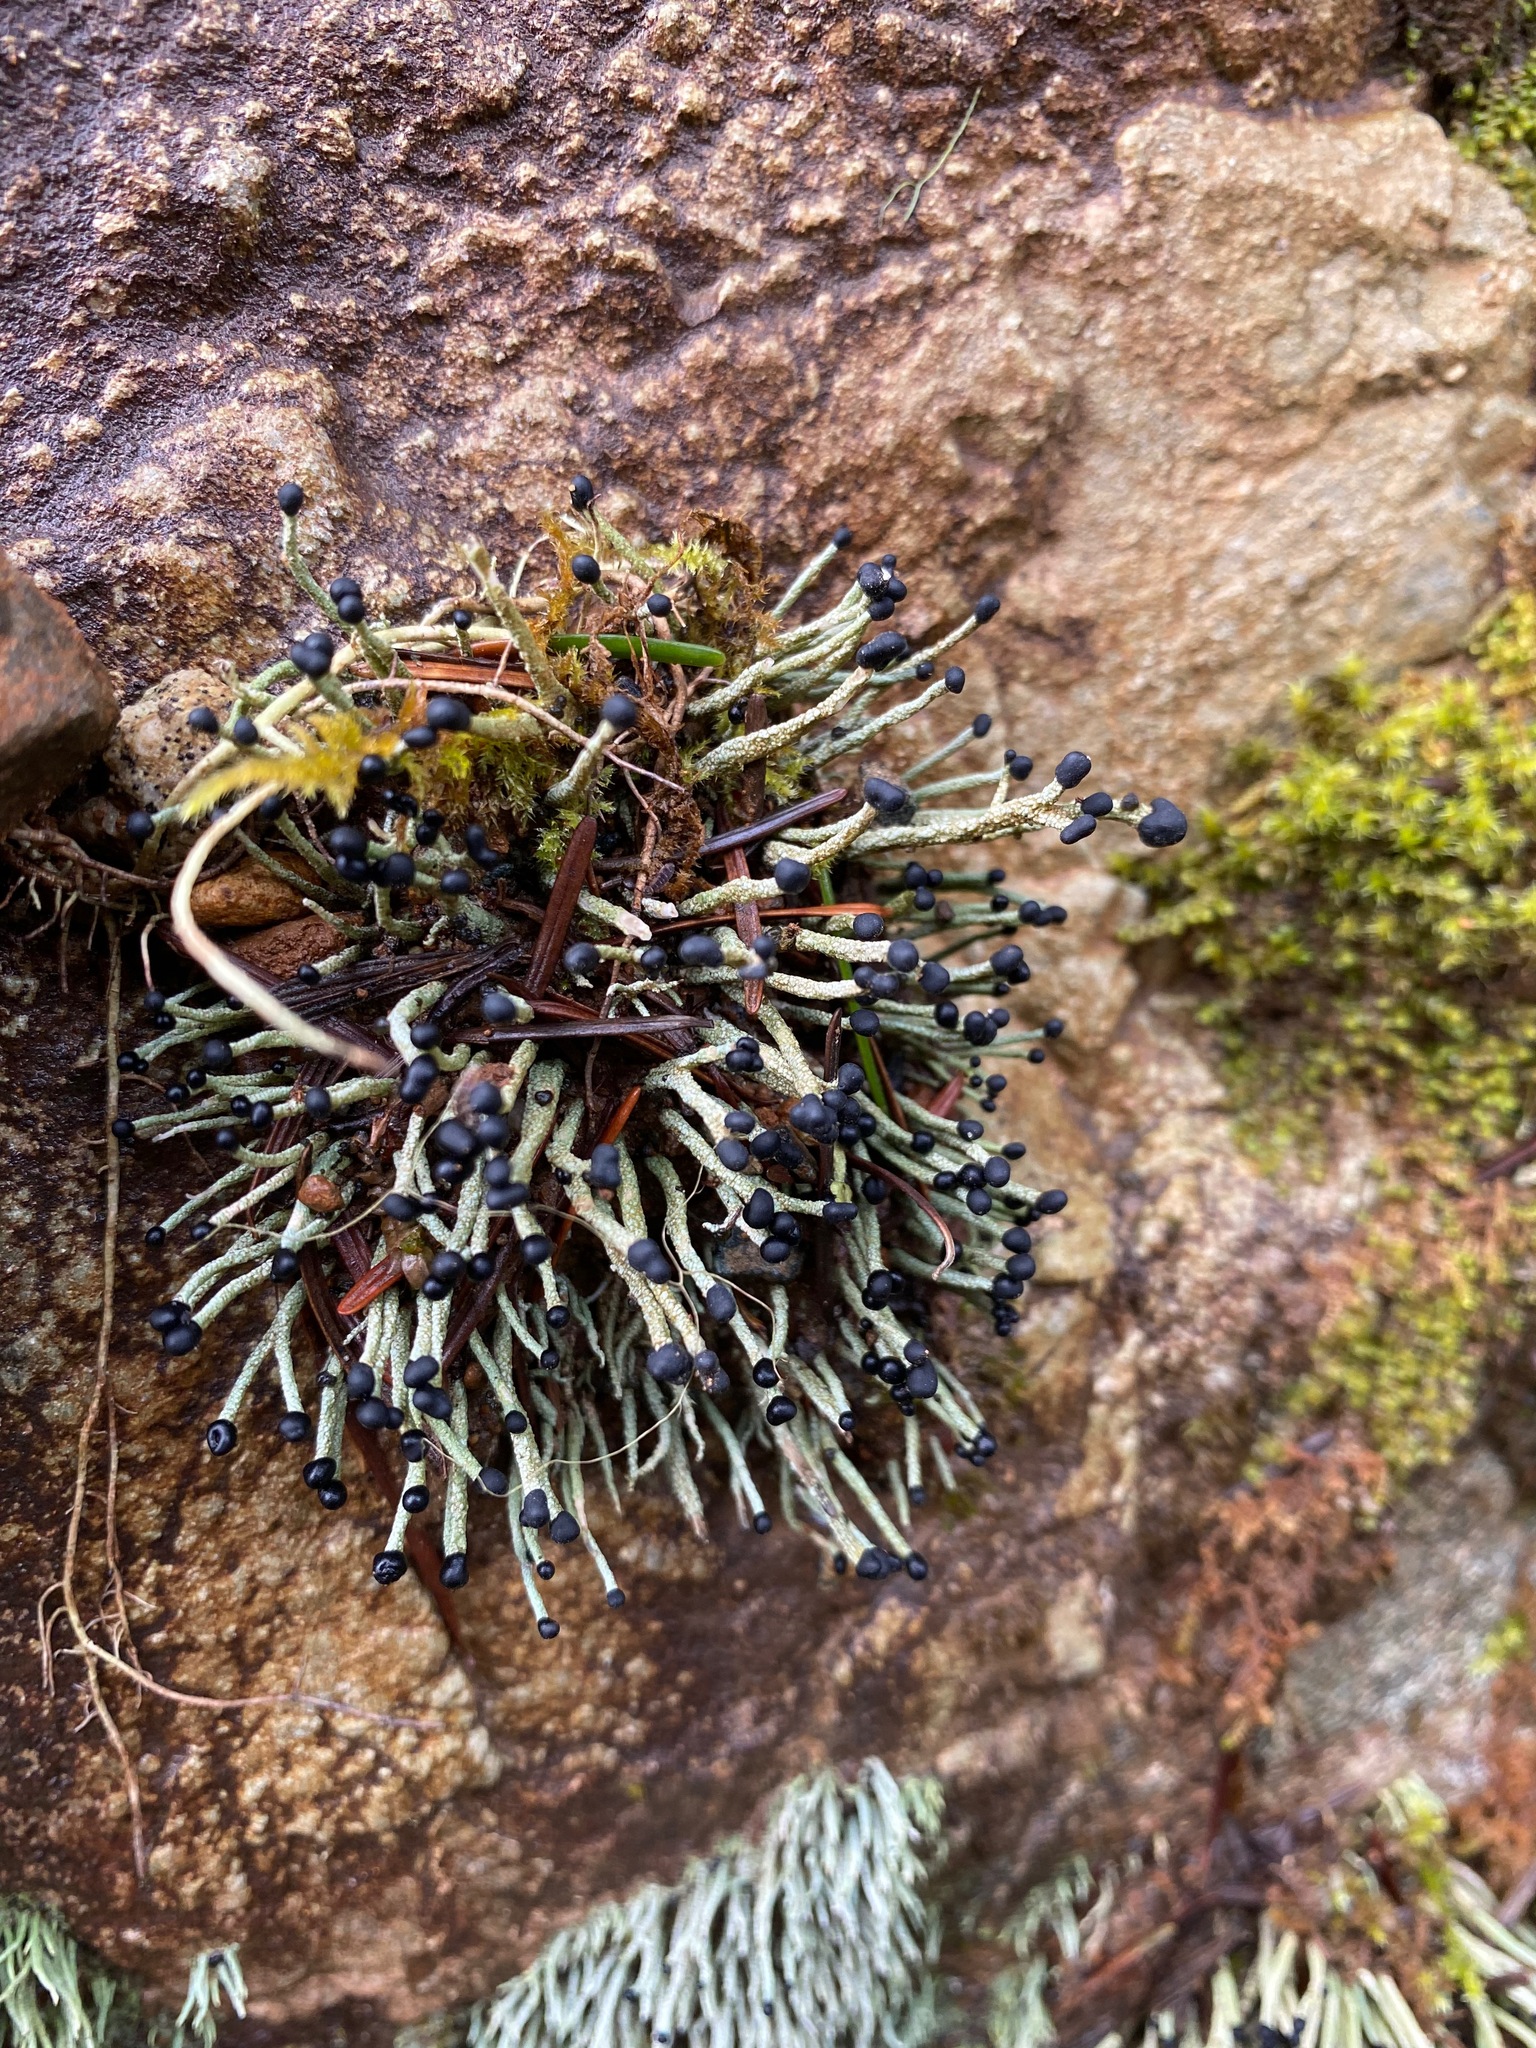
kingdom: Fungi
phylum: Ascomycota
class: Lecanoromycetes
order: Lecanorales
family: Cladoniaceae
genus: Pilophorus
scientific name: Pilophorus acicularis
